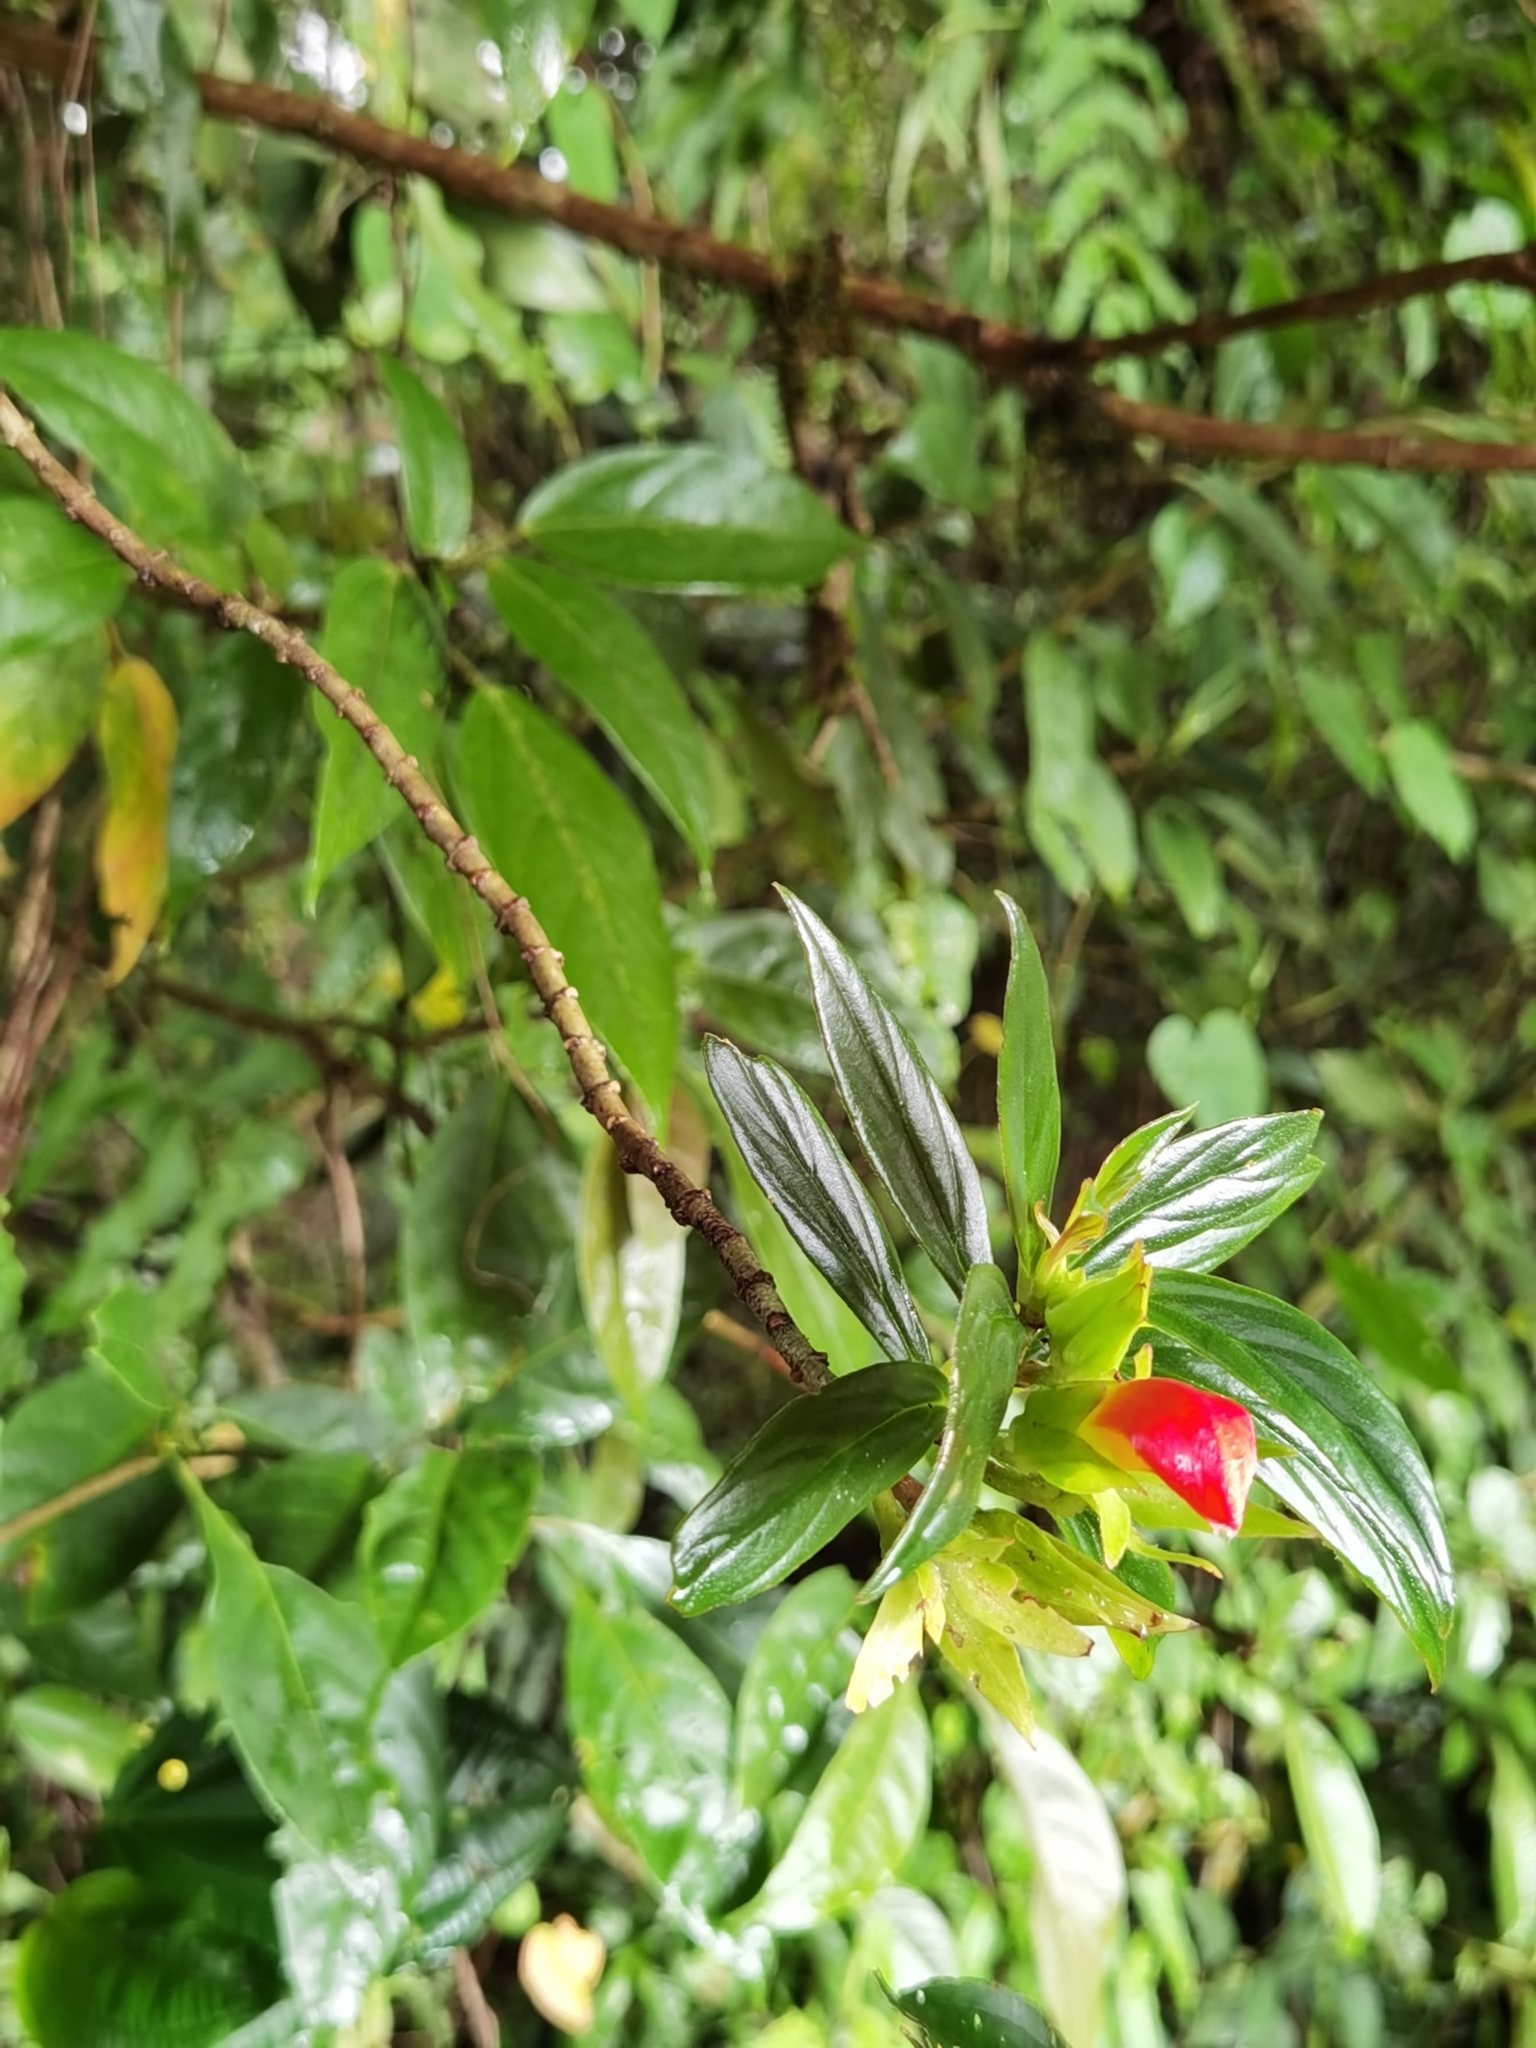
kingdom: Plantae
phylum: Tracheophyta
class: Magnoliopsida
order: Lamiales
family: Gesneriaceae
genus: Columnea
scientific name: Columnea lepidocaula
